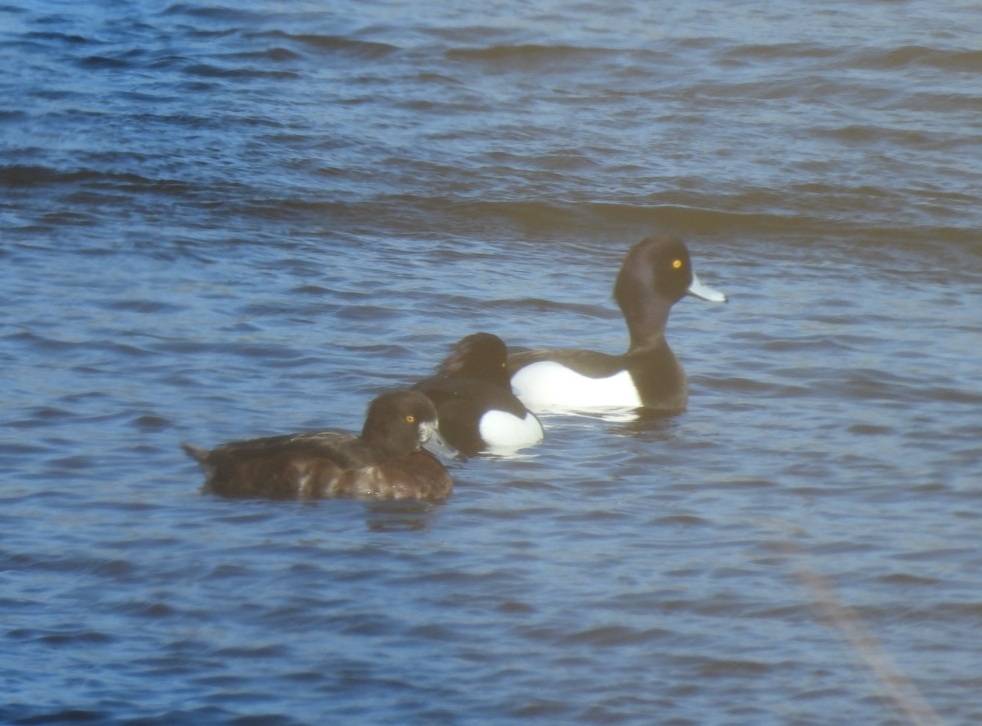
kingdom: Animalia
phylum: Chordata
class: Aves
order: Anseriformes
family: Anatidae
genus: Aythya
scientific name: Aythya fuligula
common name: Tufted duck
